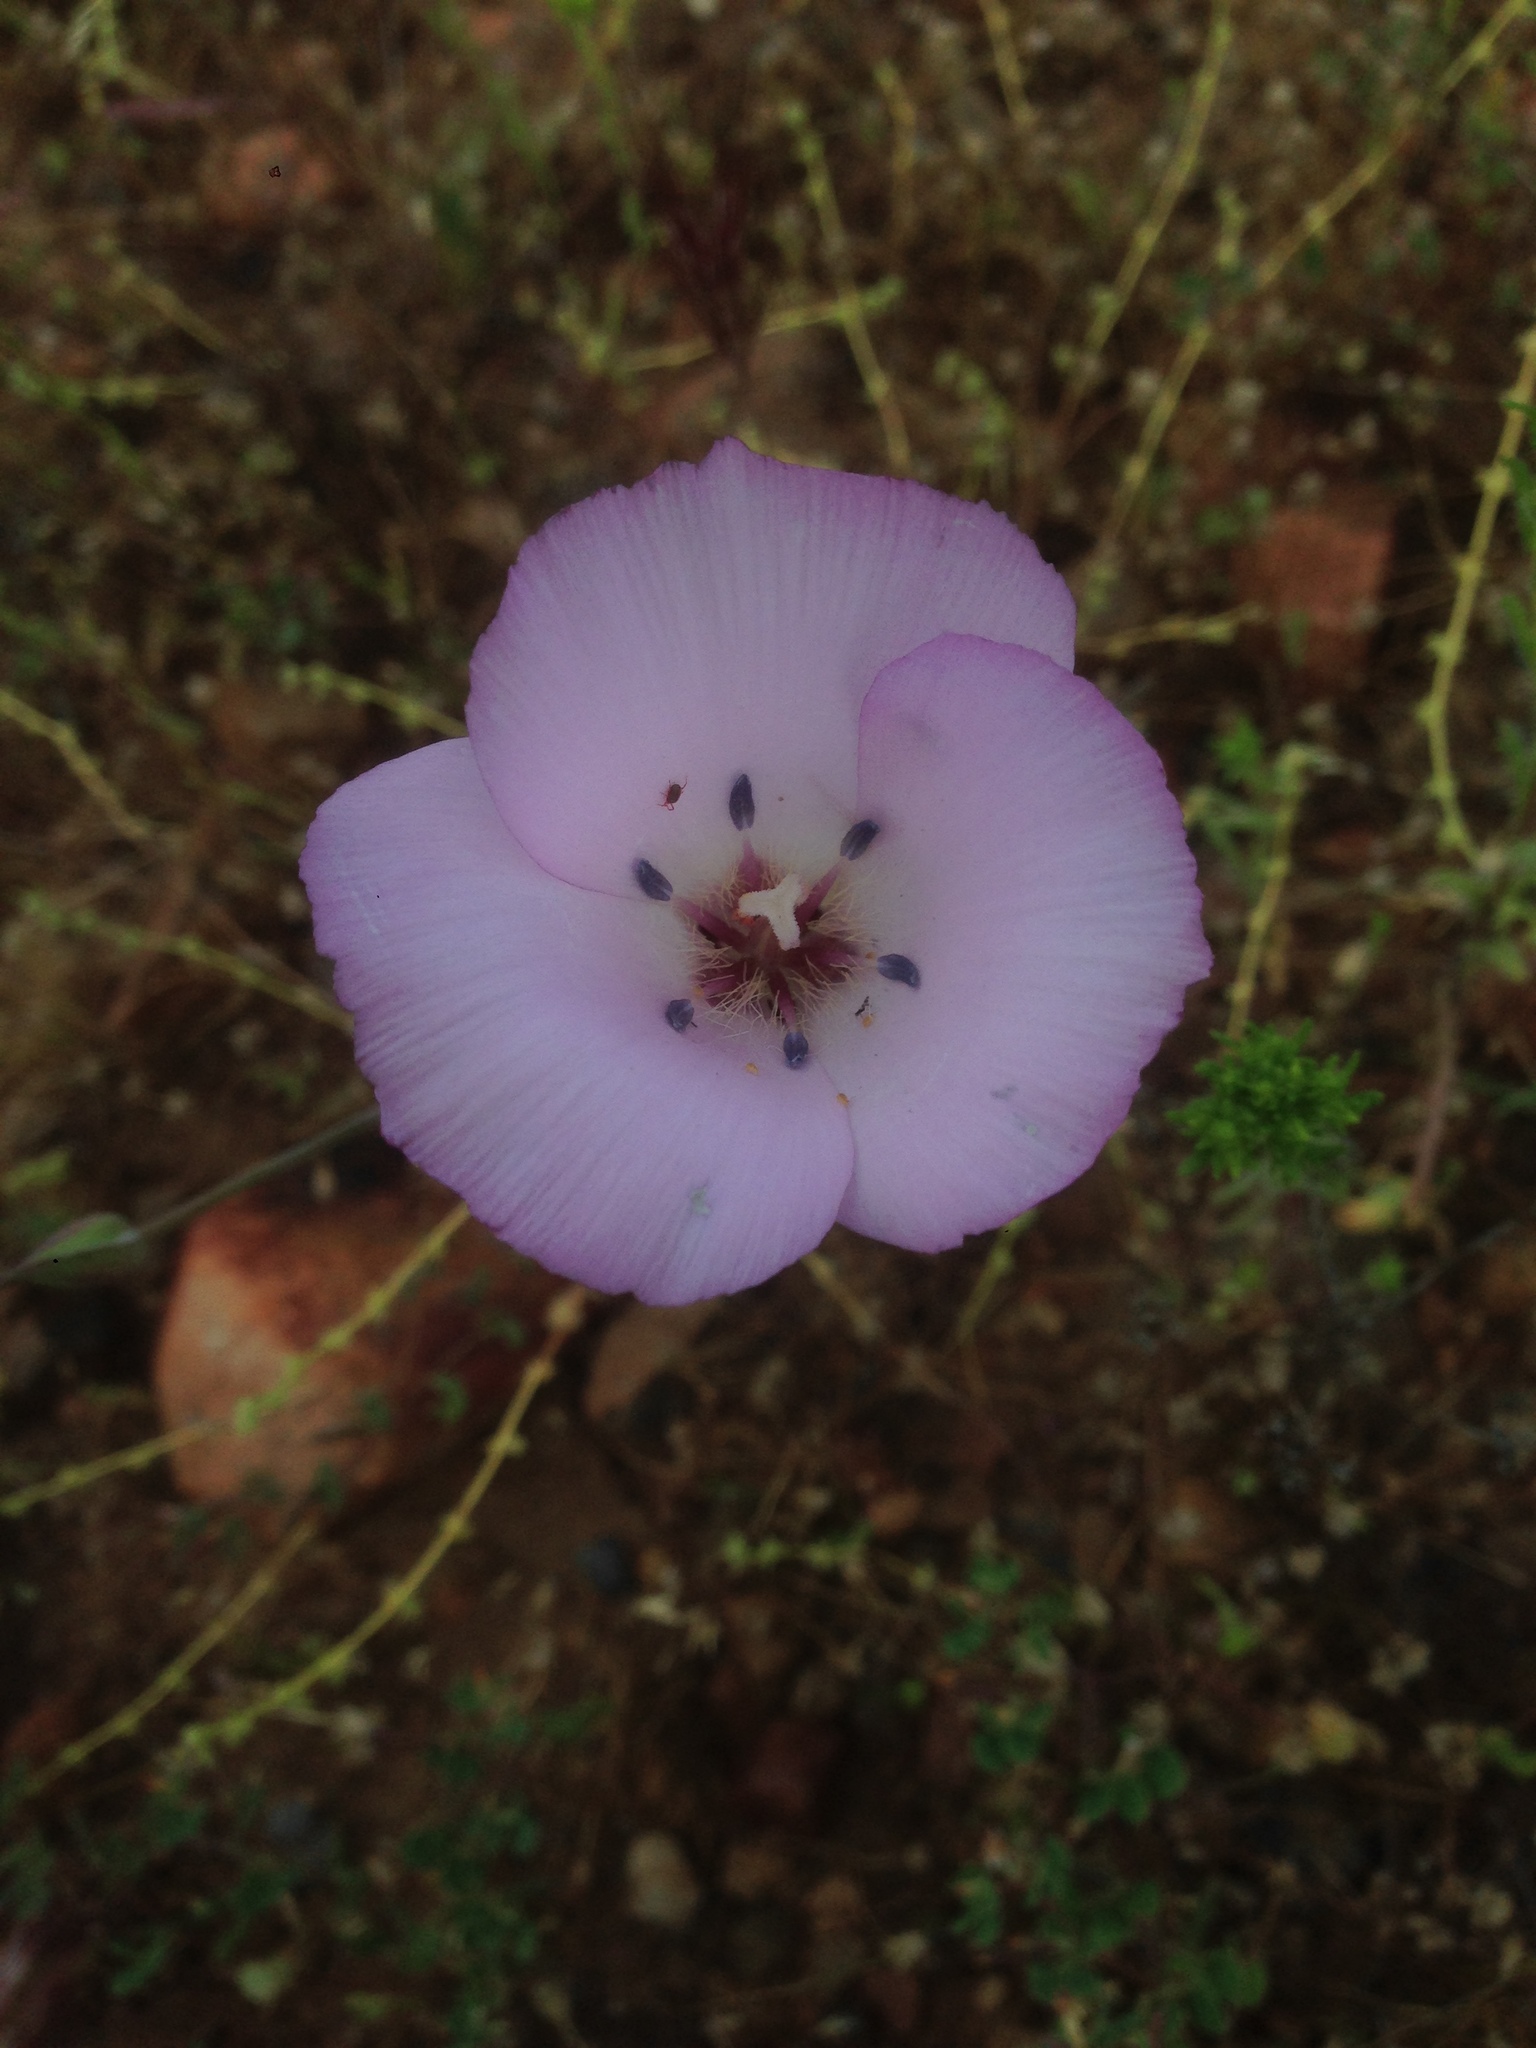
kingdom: Plantae
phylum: Tracheophyta
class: Liliopsida
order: Liliales
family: Liliaceae
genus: Calochortus
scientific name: Calochortus splendens
